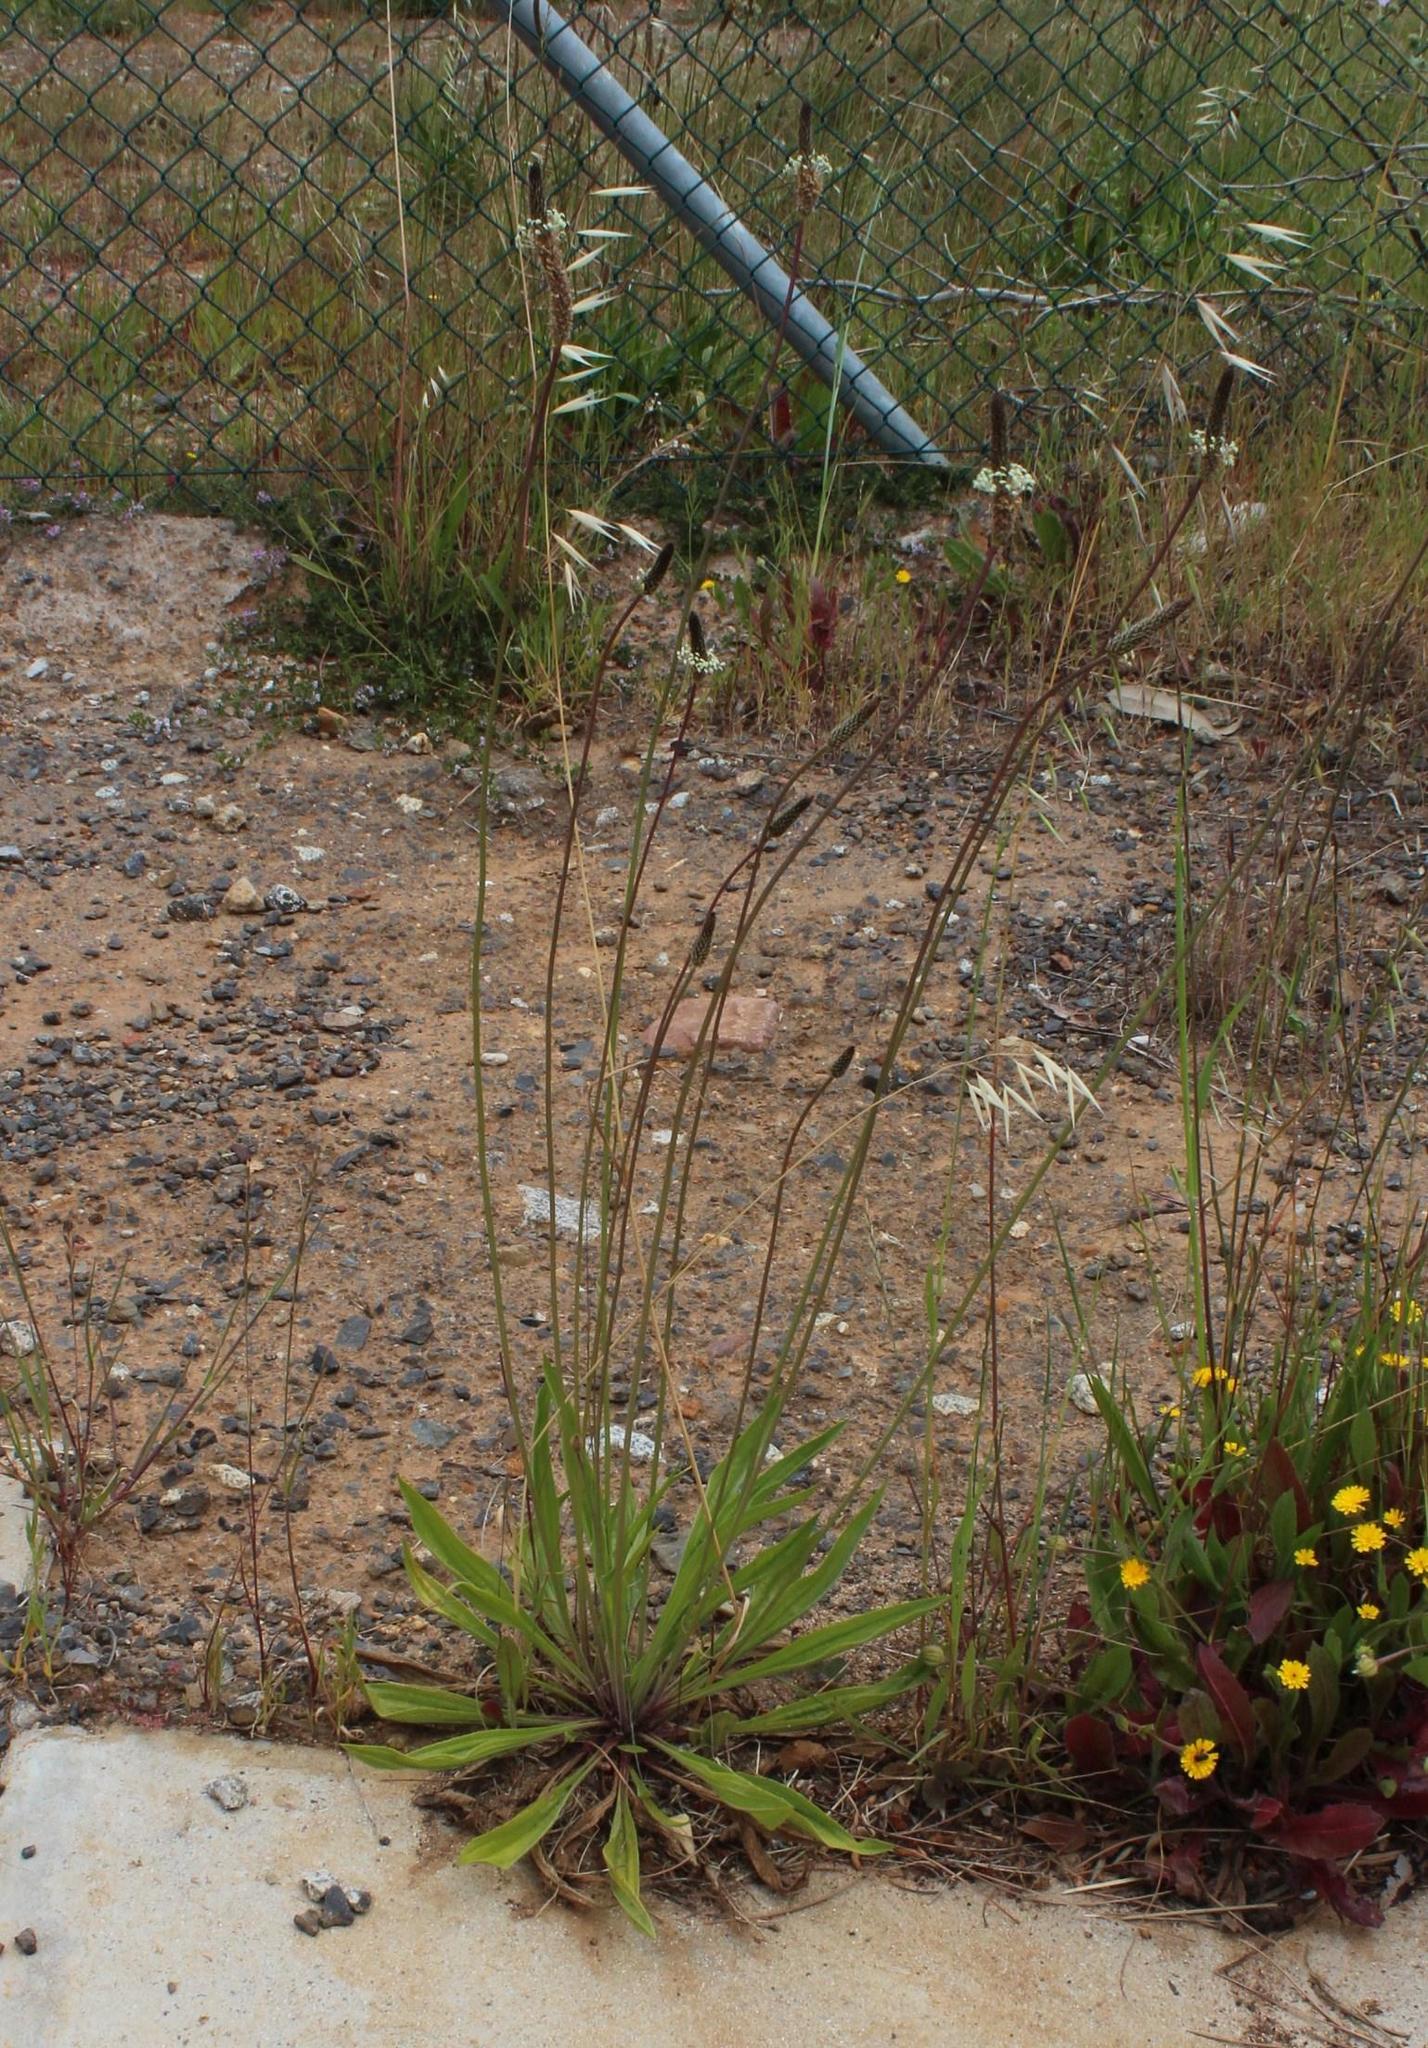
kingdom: Plantae
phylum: Tracheophyta
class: Magnoliopsida
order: Lamiales
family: Plantaginaceae
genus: Plantago
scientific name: Plantago lanceolata
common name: Ribwort plantain
